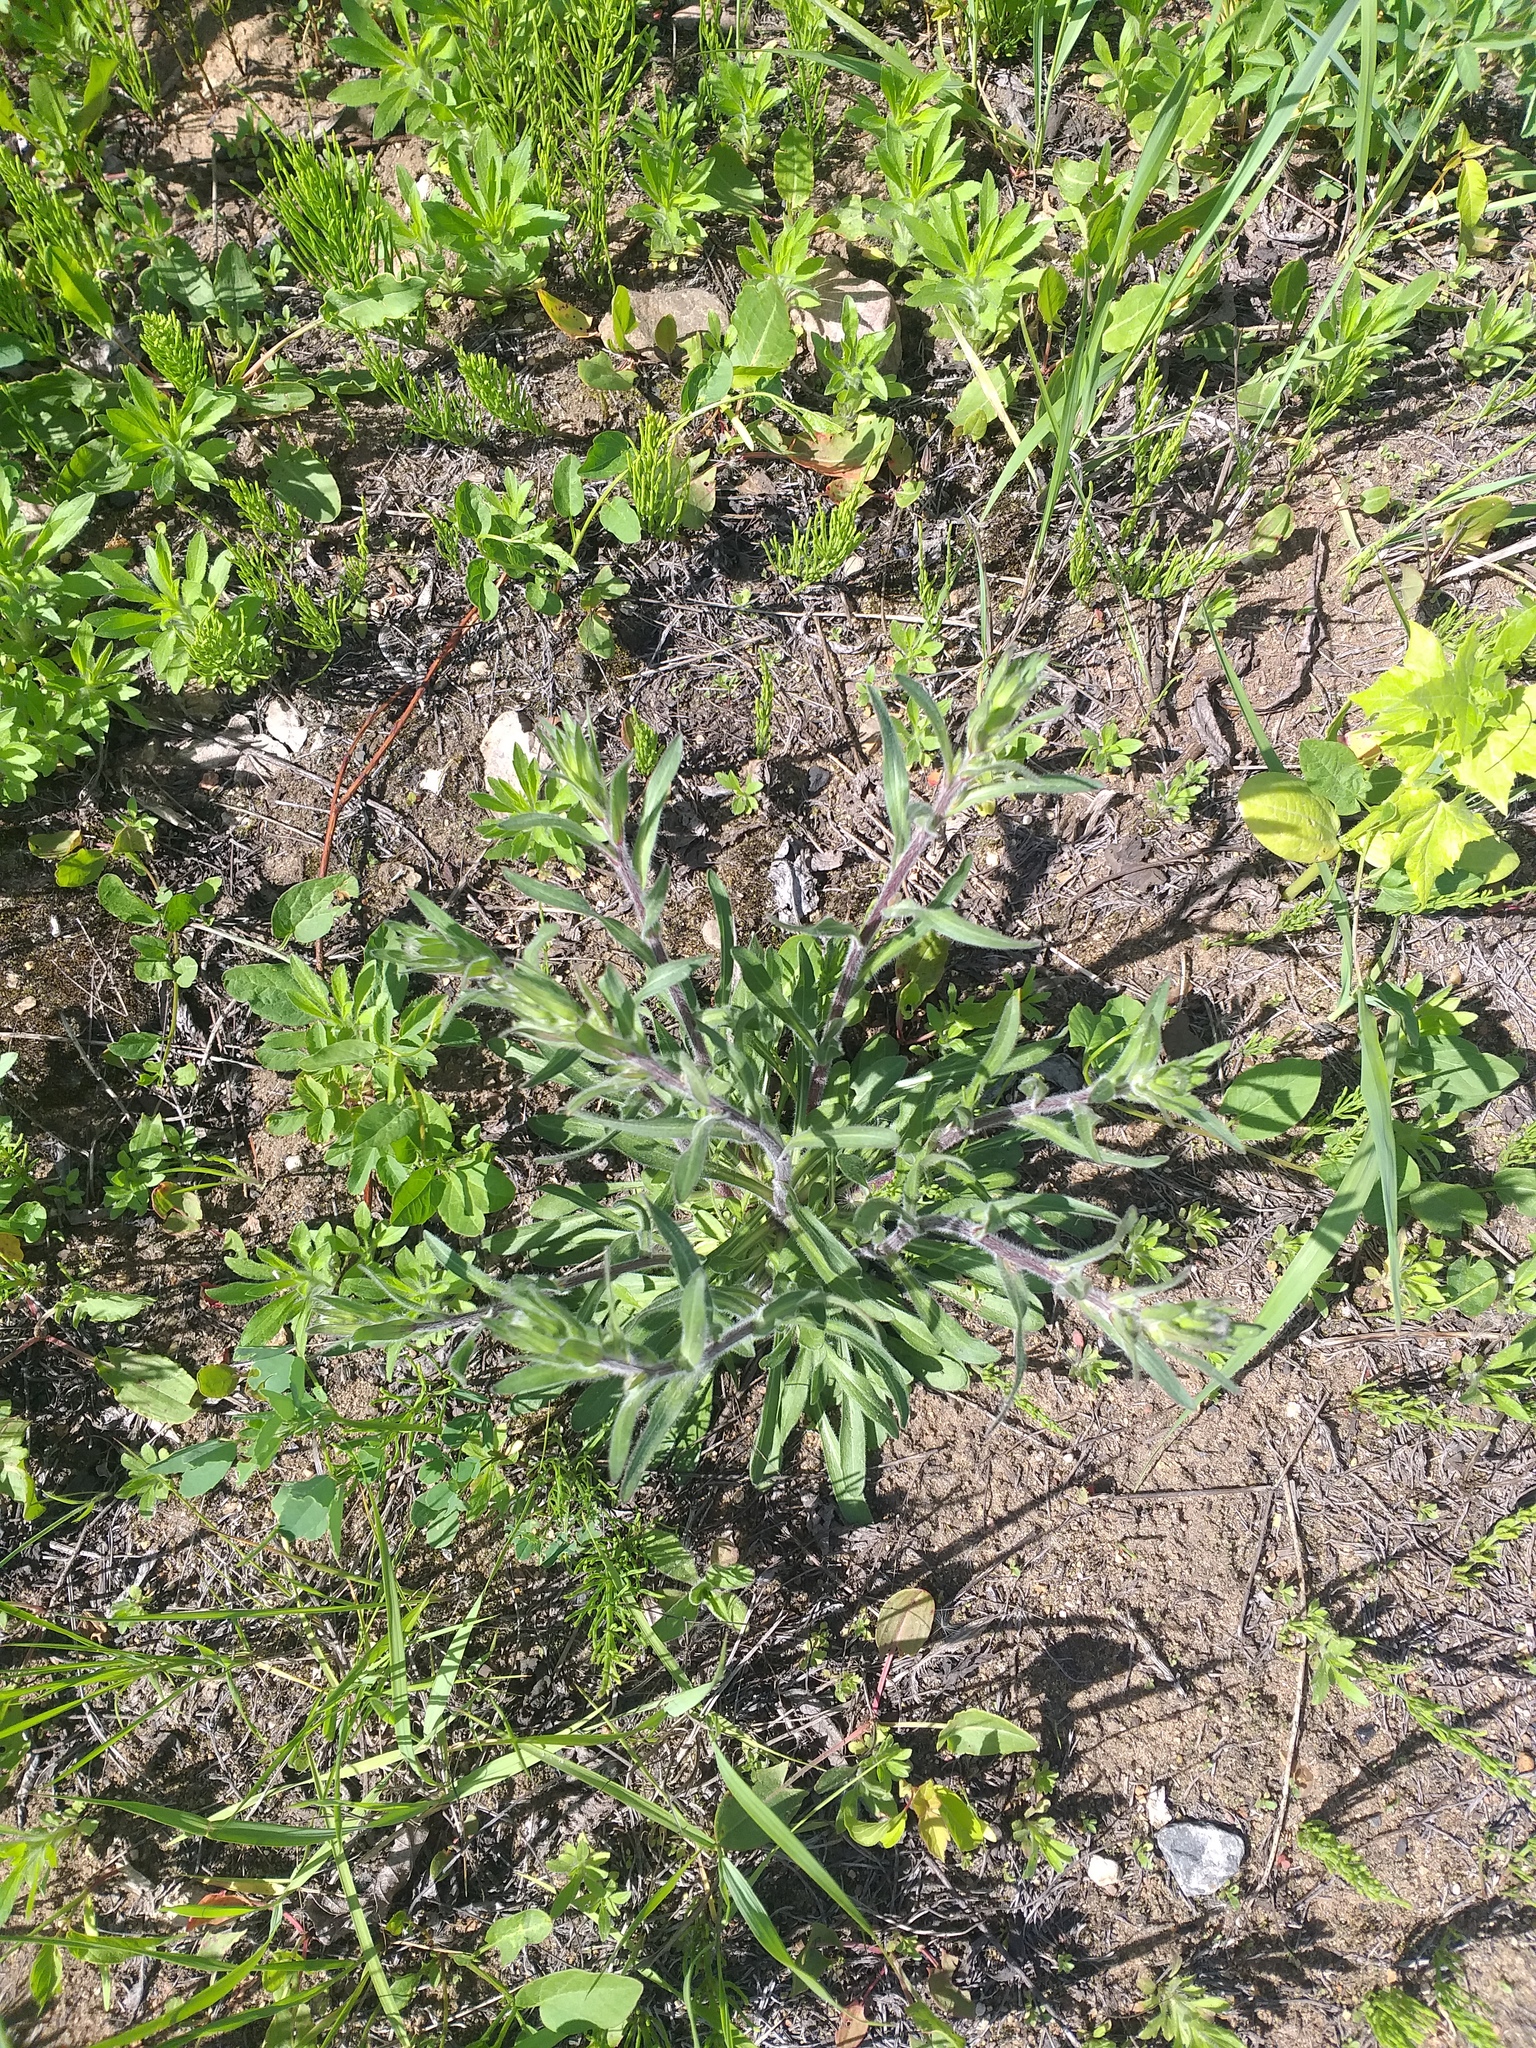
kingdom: Plantae
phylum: Tracheophyta
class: Magnoliopsida
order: Asterales
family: Asteraceae
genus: Erigeron
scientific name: Erigeron acris
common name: Blue fleabane
